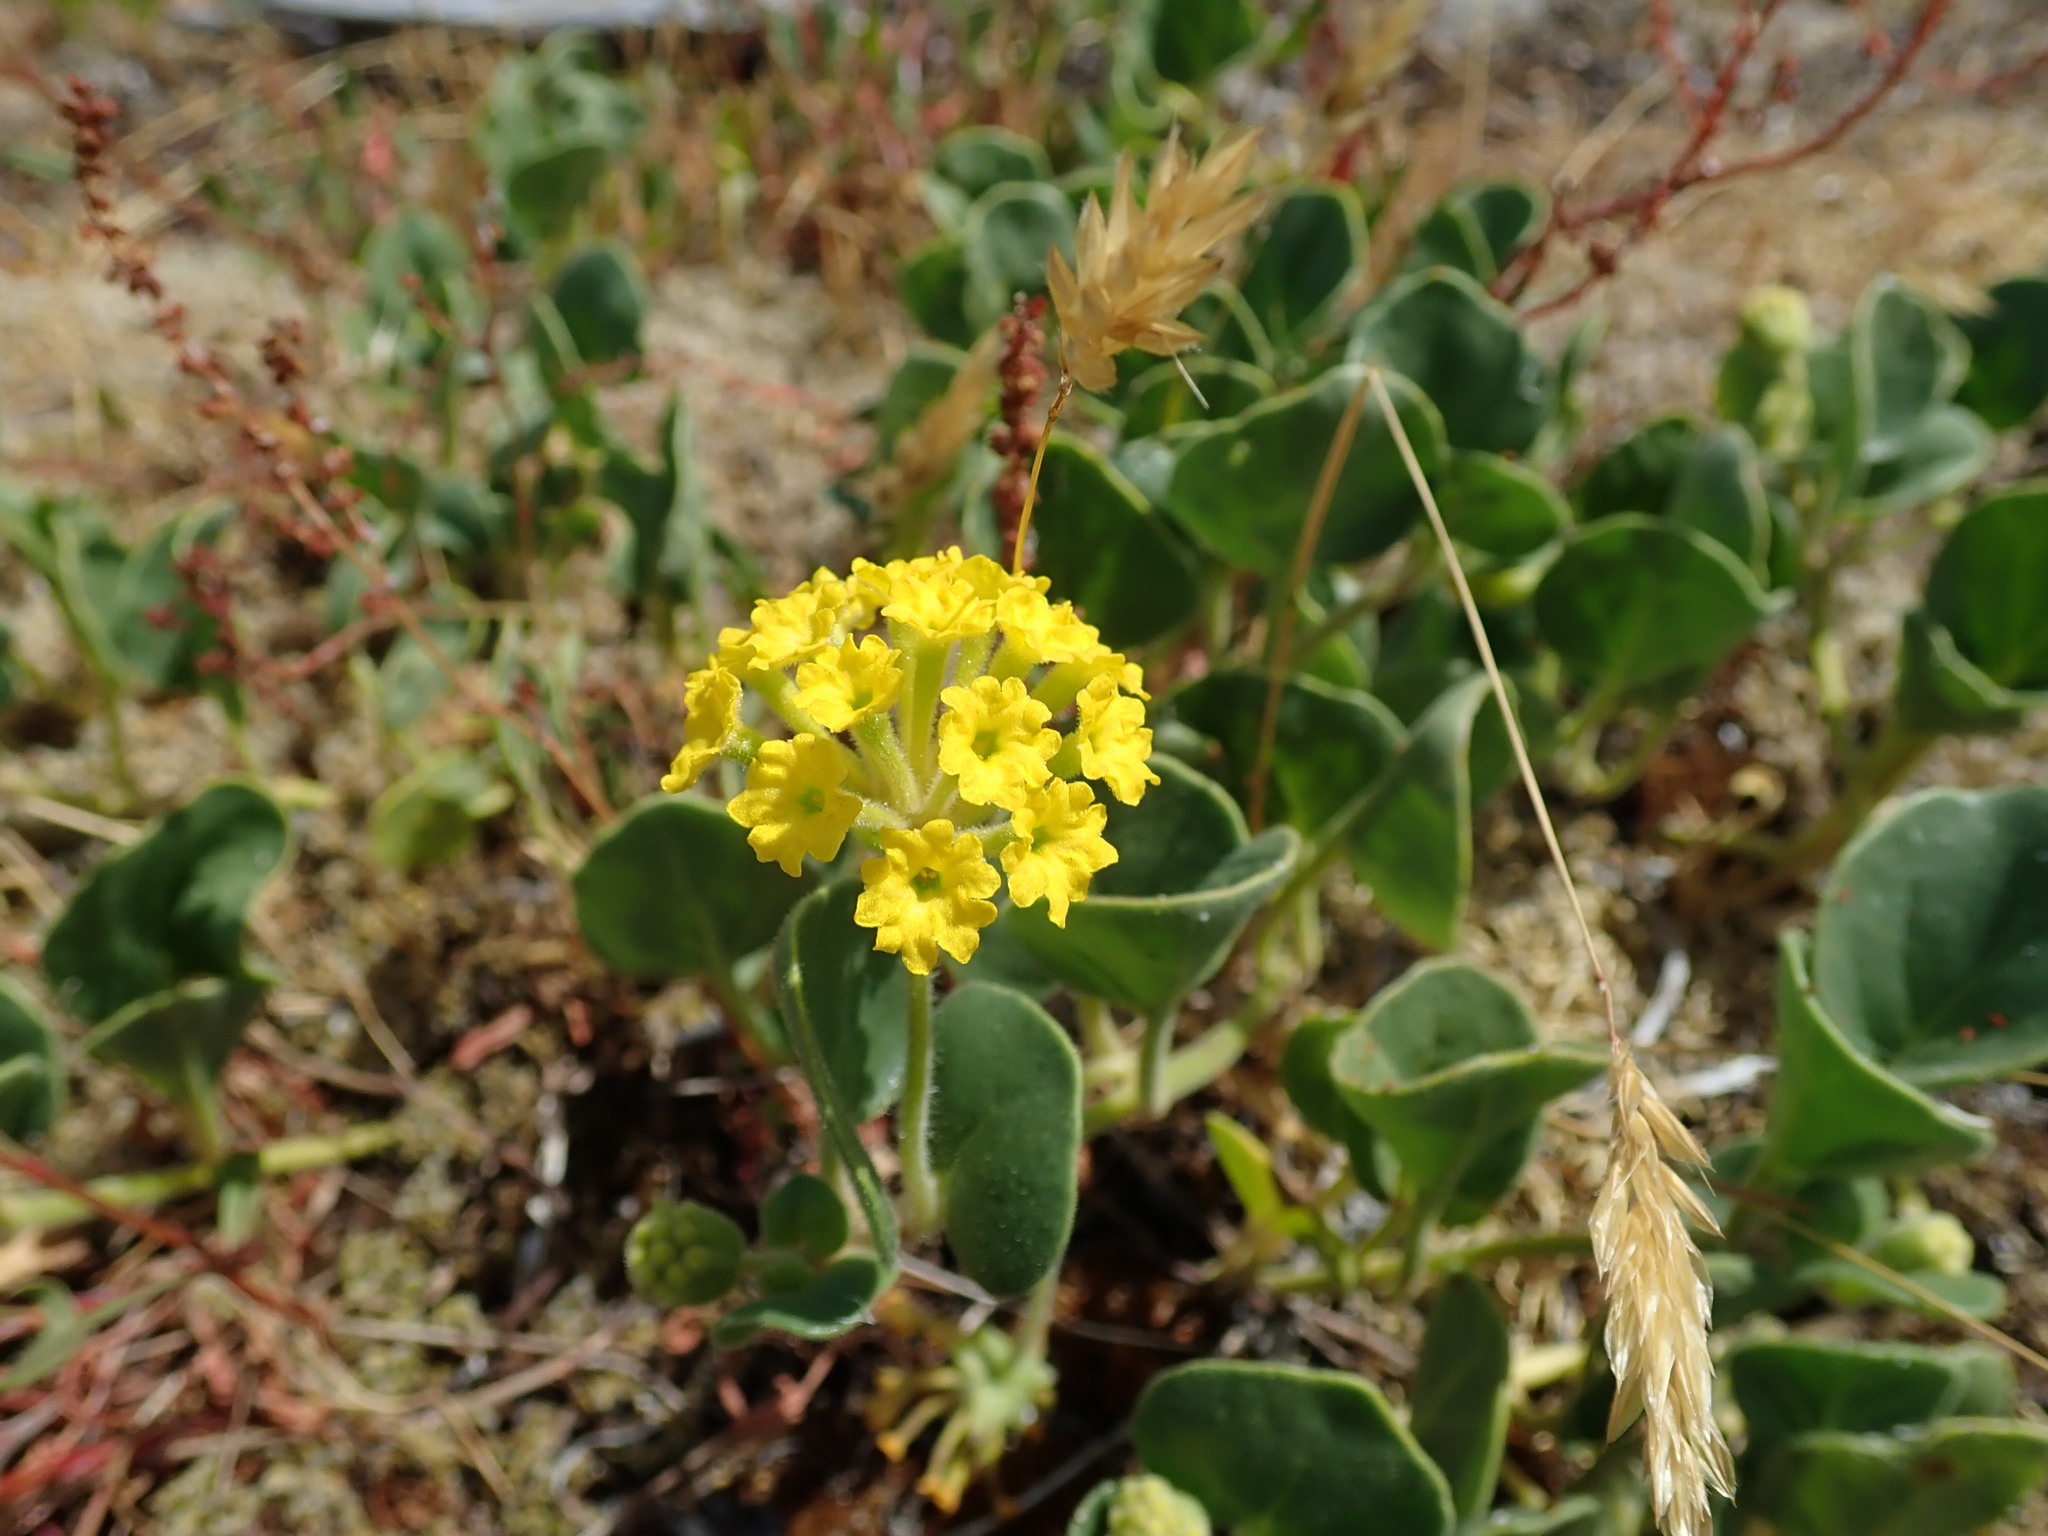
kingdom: Plantae
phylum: Tracheophyta
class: Magnoliopsida
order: Caryophyllales
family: Nyctaginaceae
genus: Abronia
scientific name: Abronia latifolia
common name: Yellow sand-verbena
